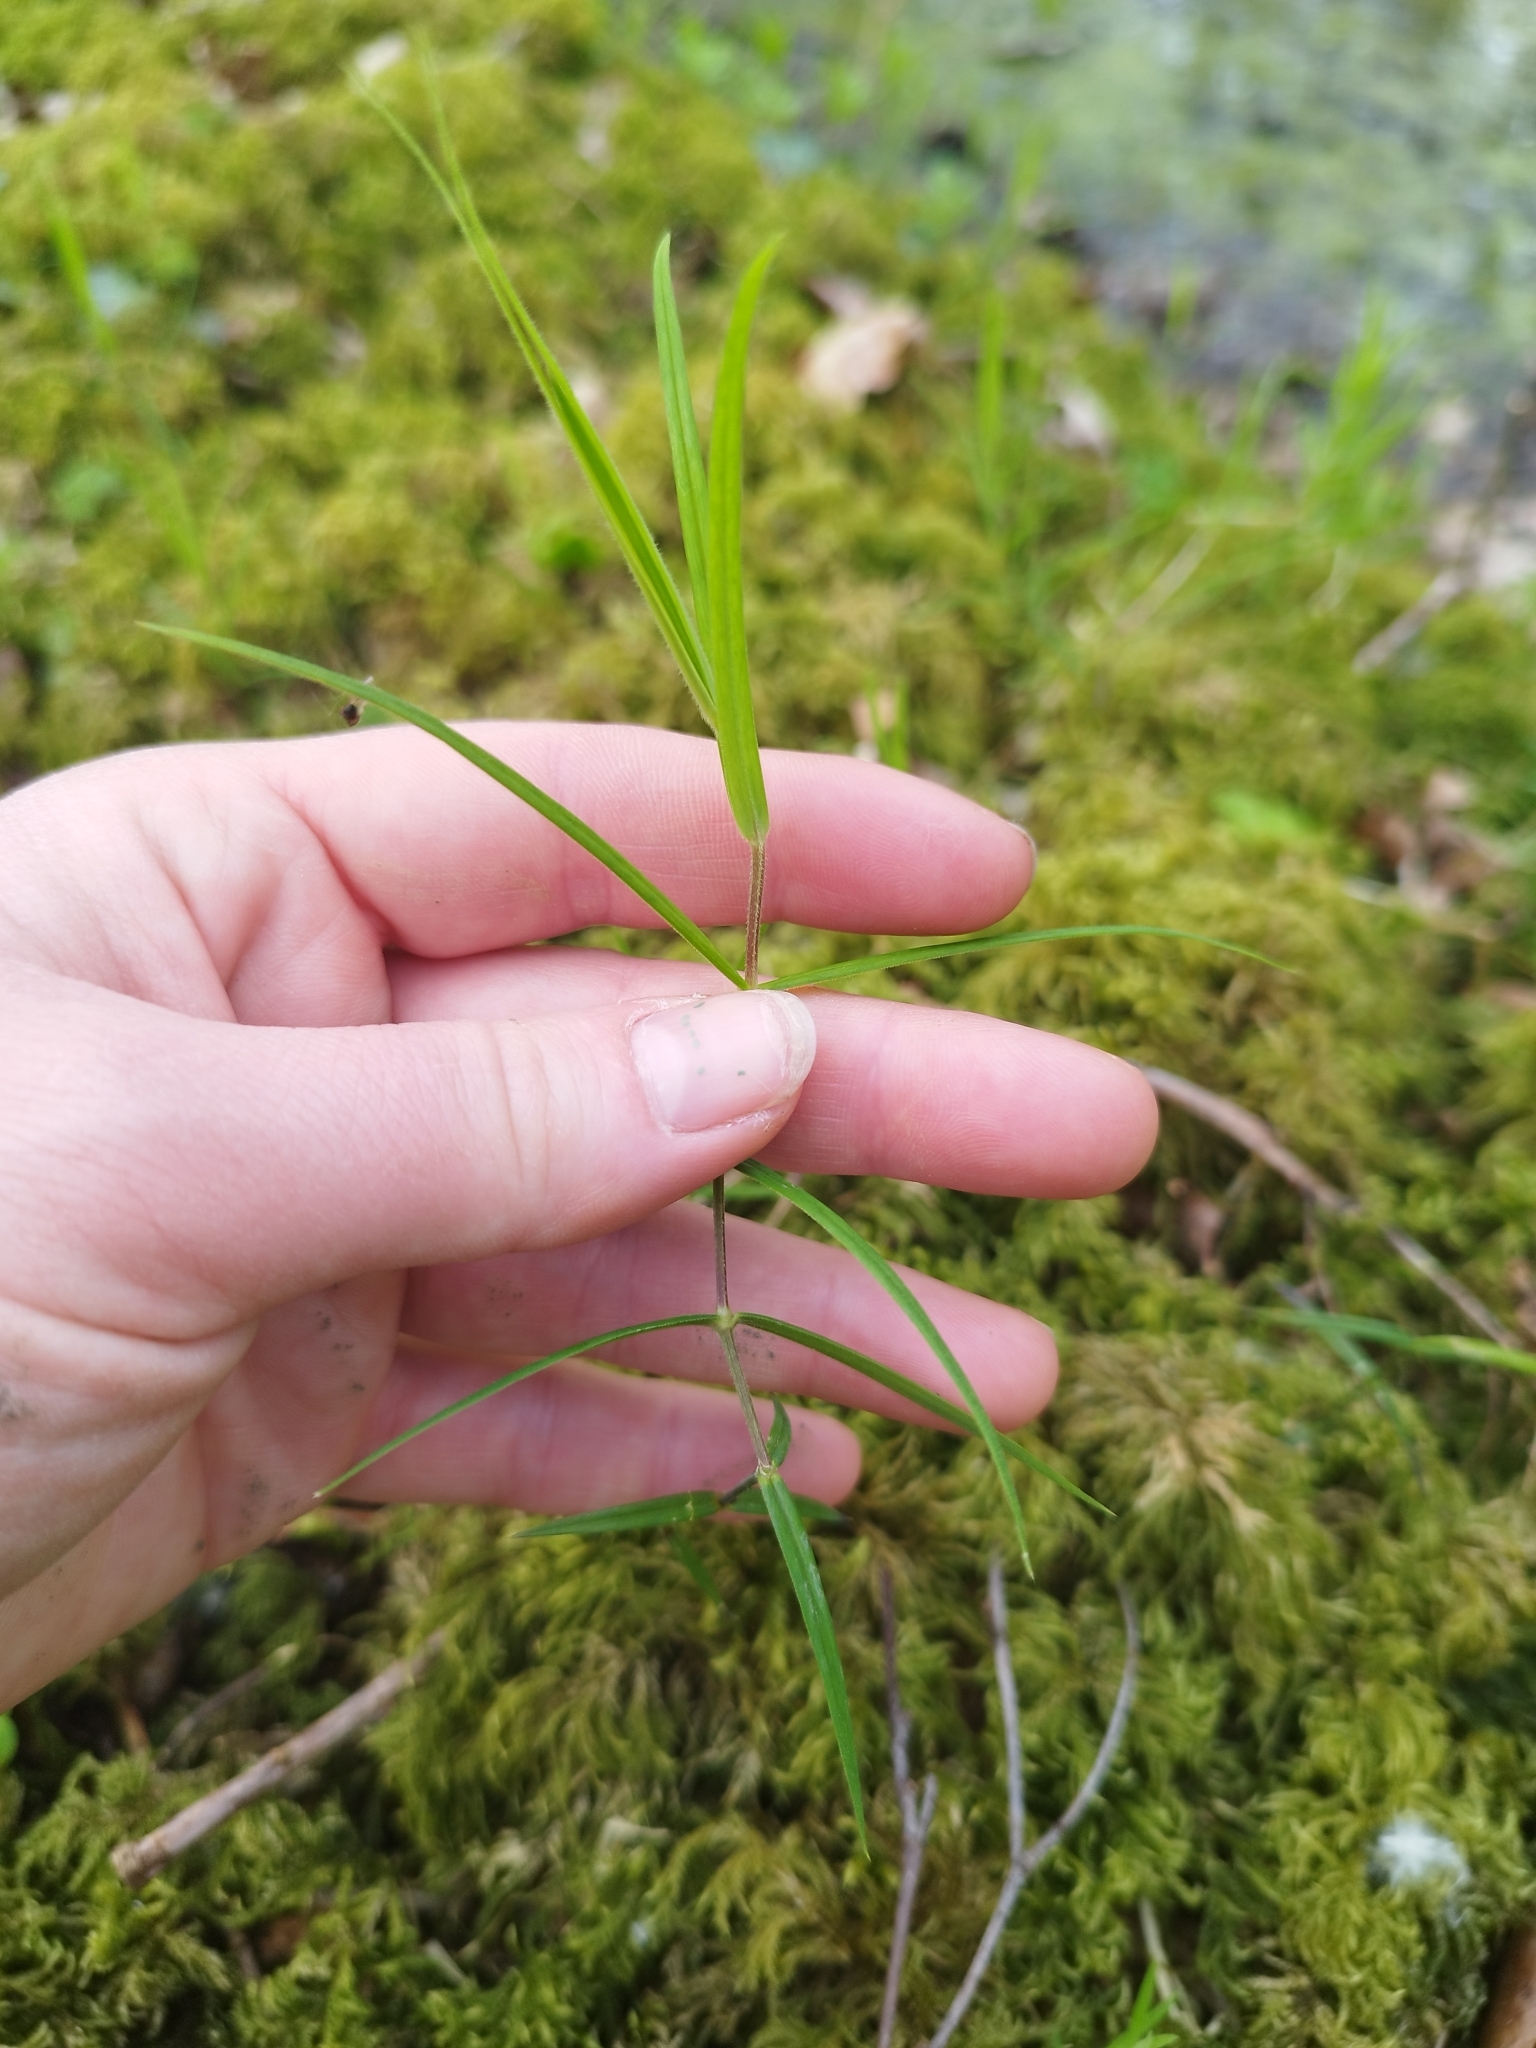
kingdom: Plantae
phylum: Tracheophyta
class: Magnoliopsida
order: Caryophyllales
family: Caryophyllaceae
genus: Rabelera
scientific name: Rabelera holostea
